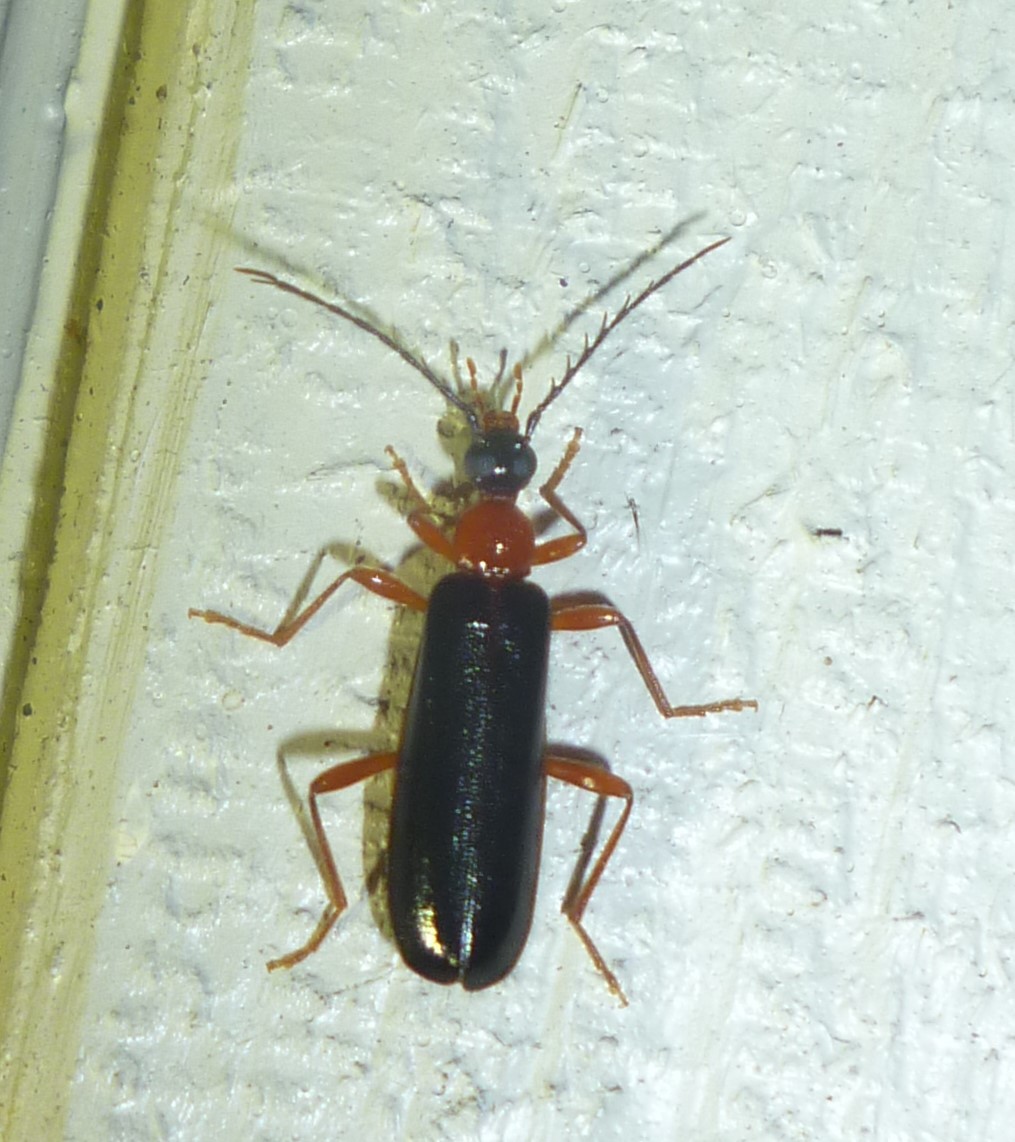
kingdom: Animalia
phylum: Arthropoda
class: Insecta
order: Coleoptera
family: Pyrochroidae
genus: Dendroides
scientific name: Dendroides canadensis
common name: Canada fire-colored beetle
